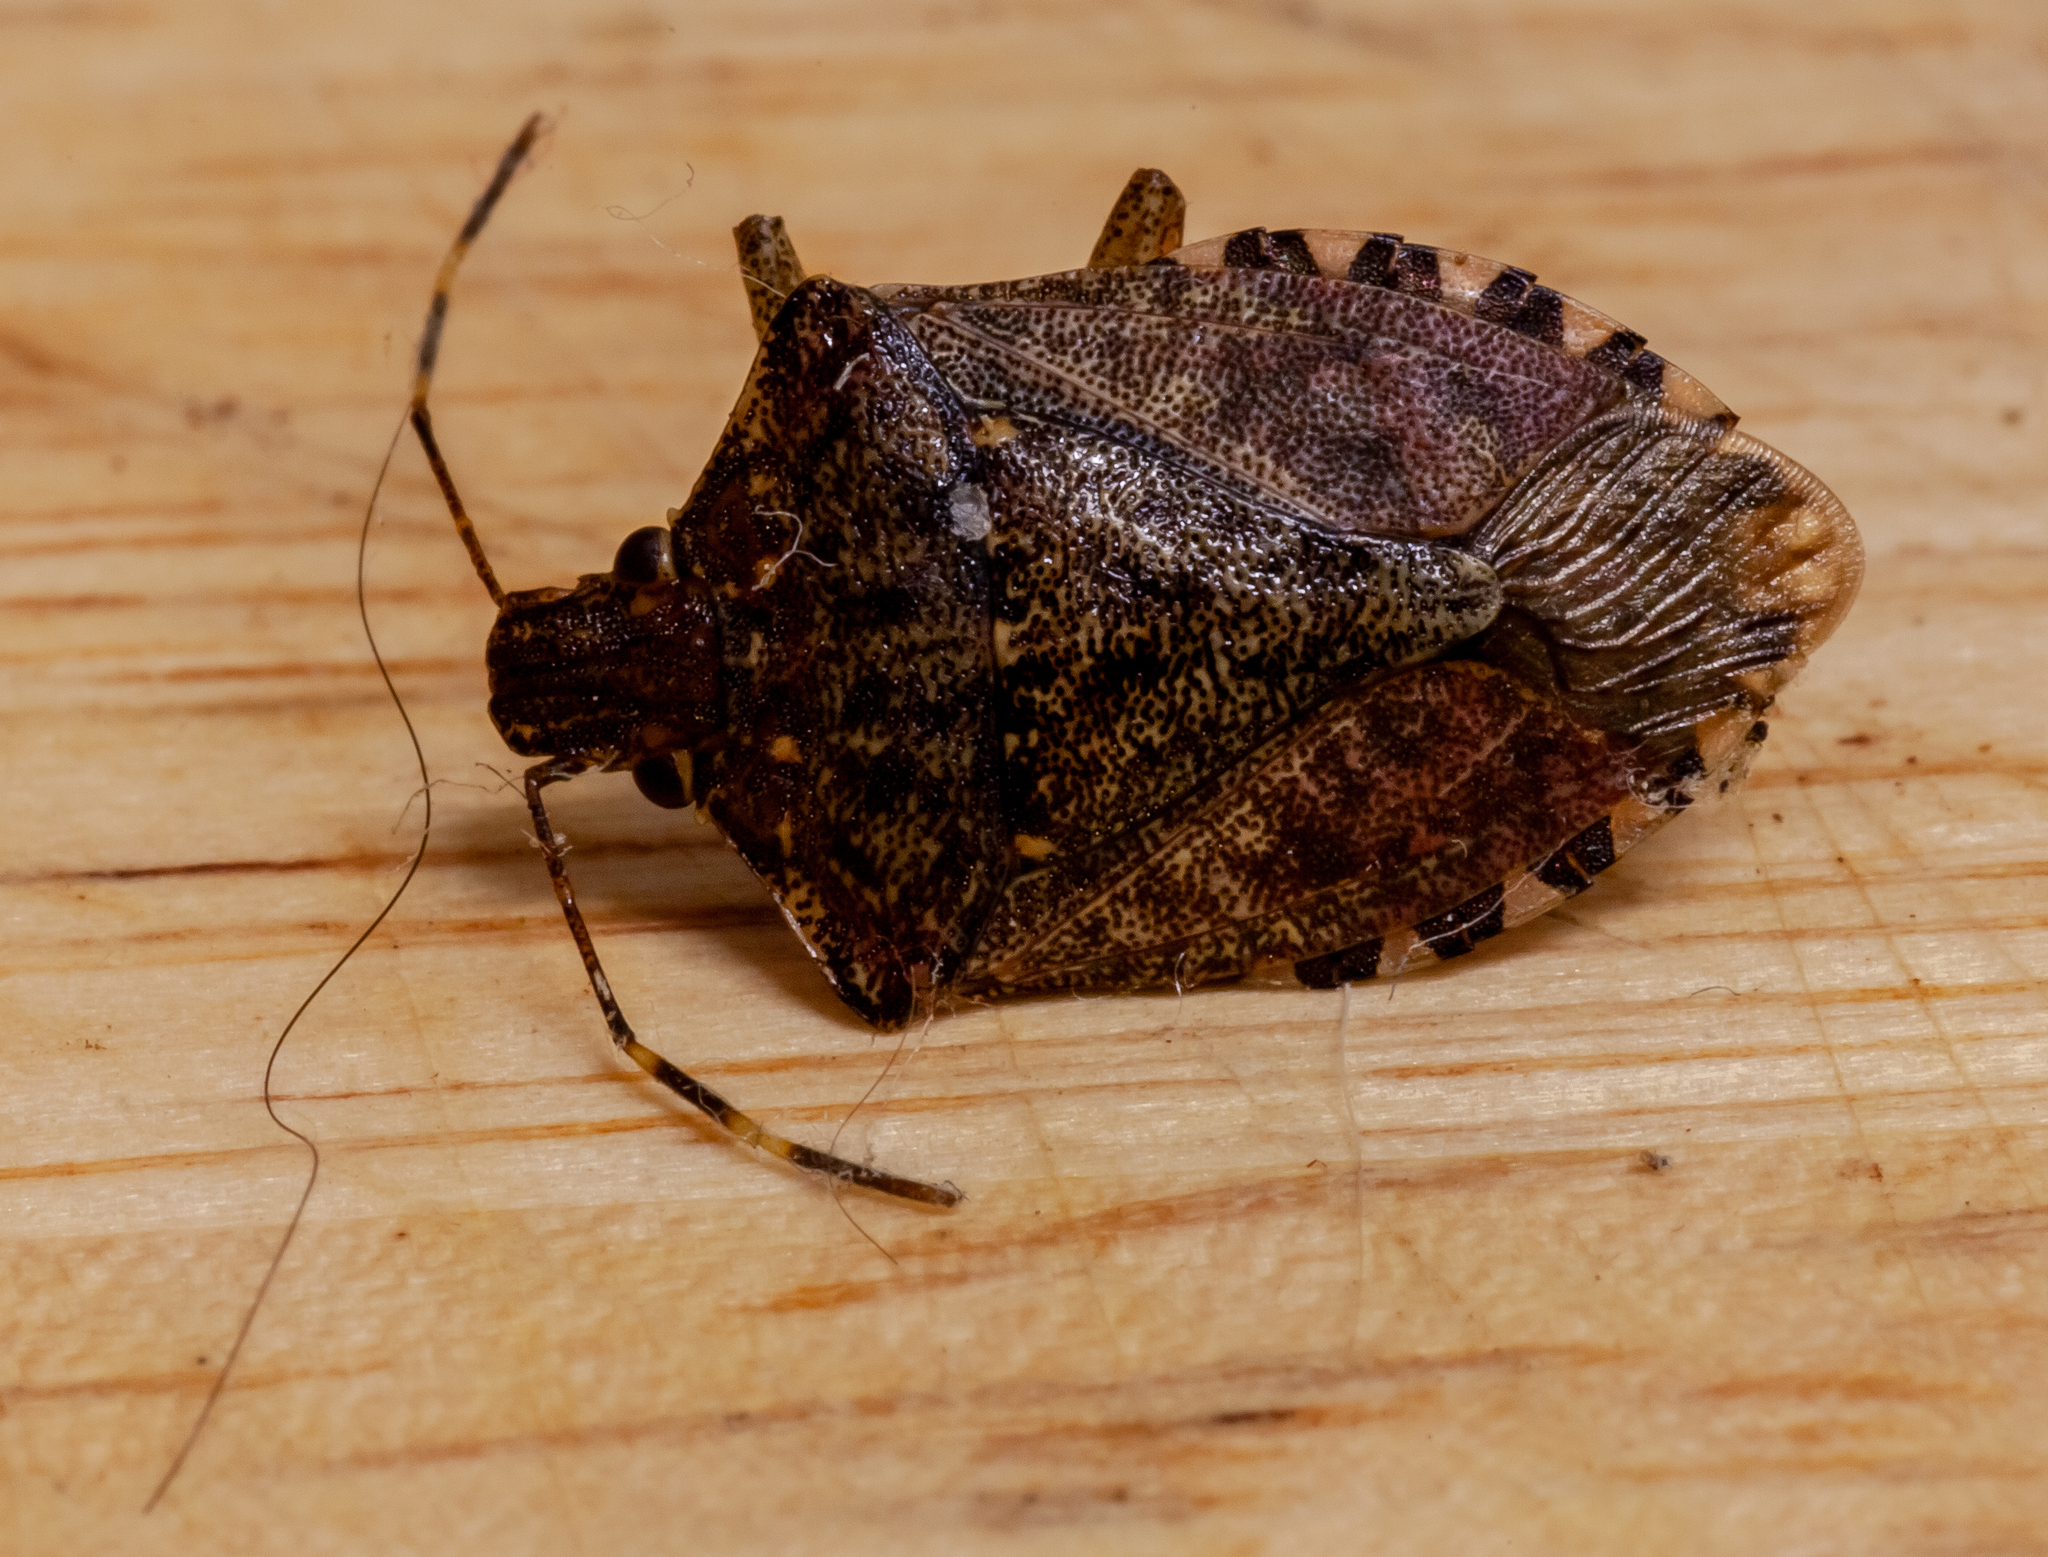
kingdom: Animalia
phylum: Arthropoda
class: Insecta
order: Hemiptera
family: Pentatomidae
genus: Halyomorpha
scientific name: Halyomorpha halys
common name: Brown marmorated stink bug
